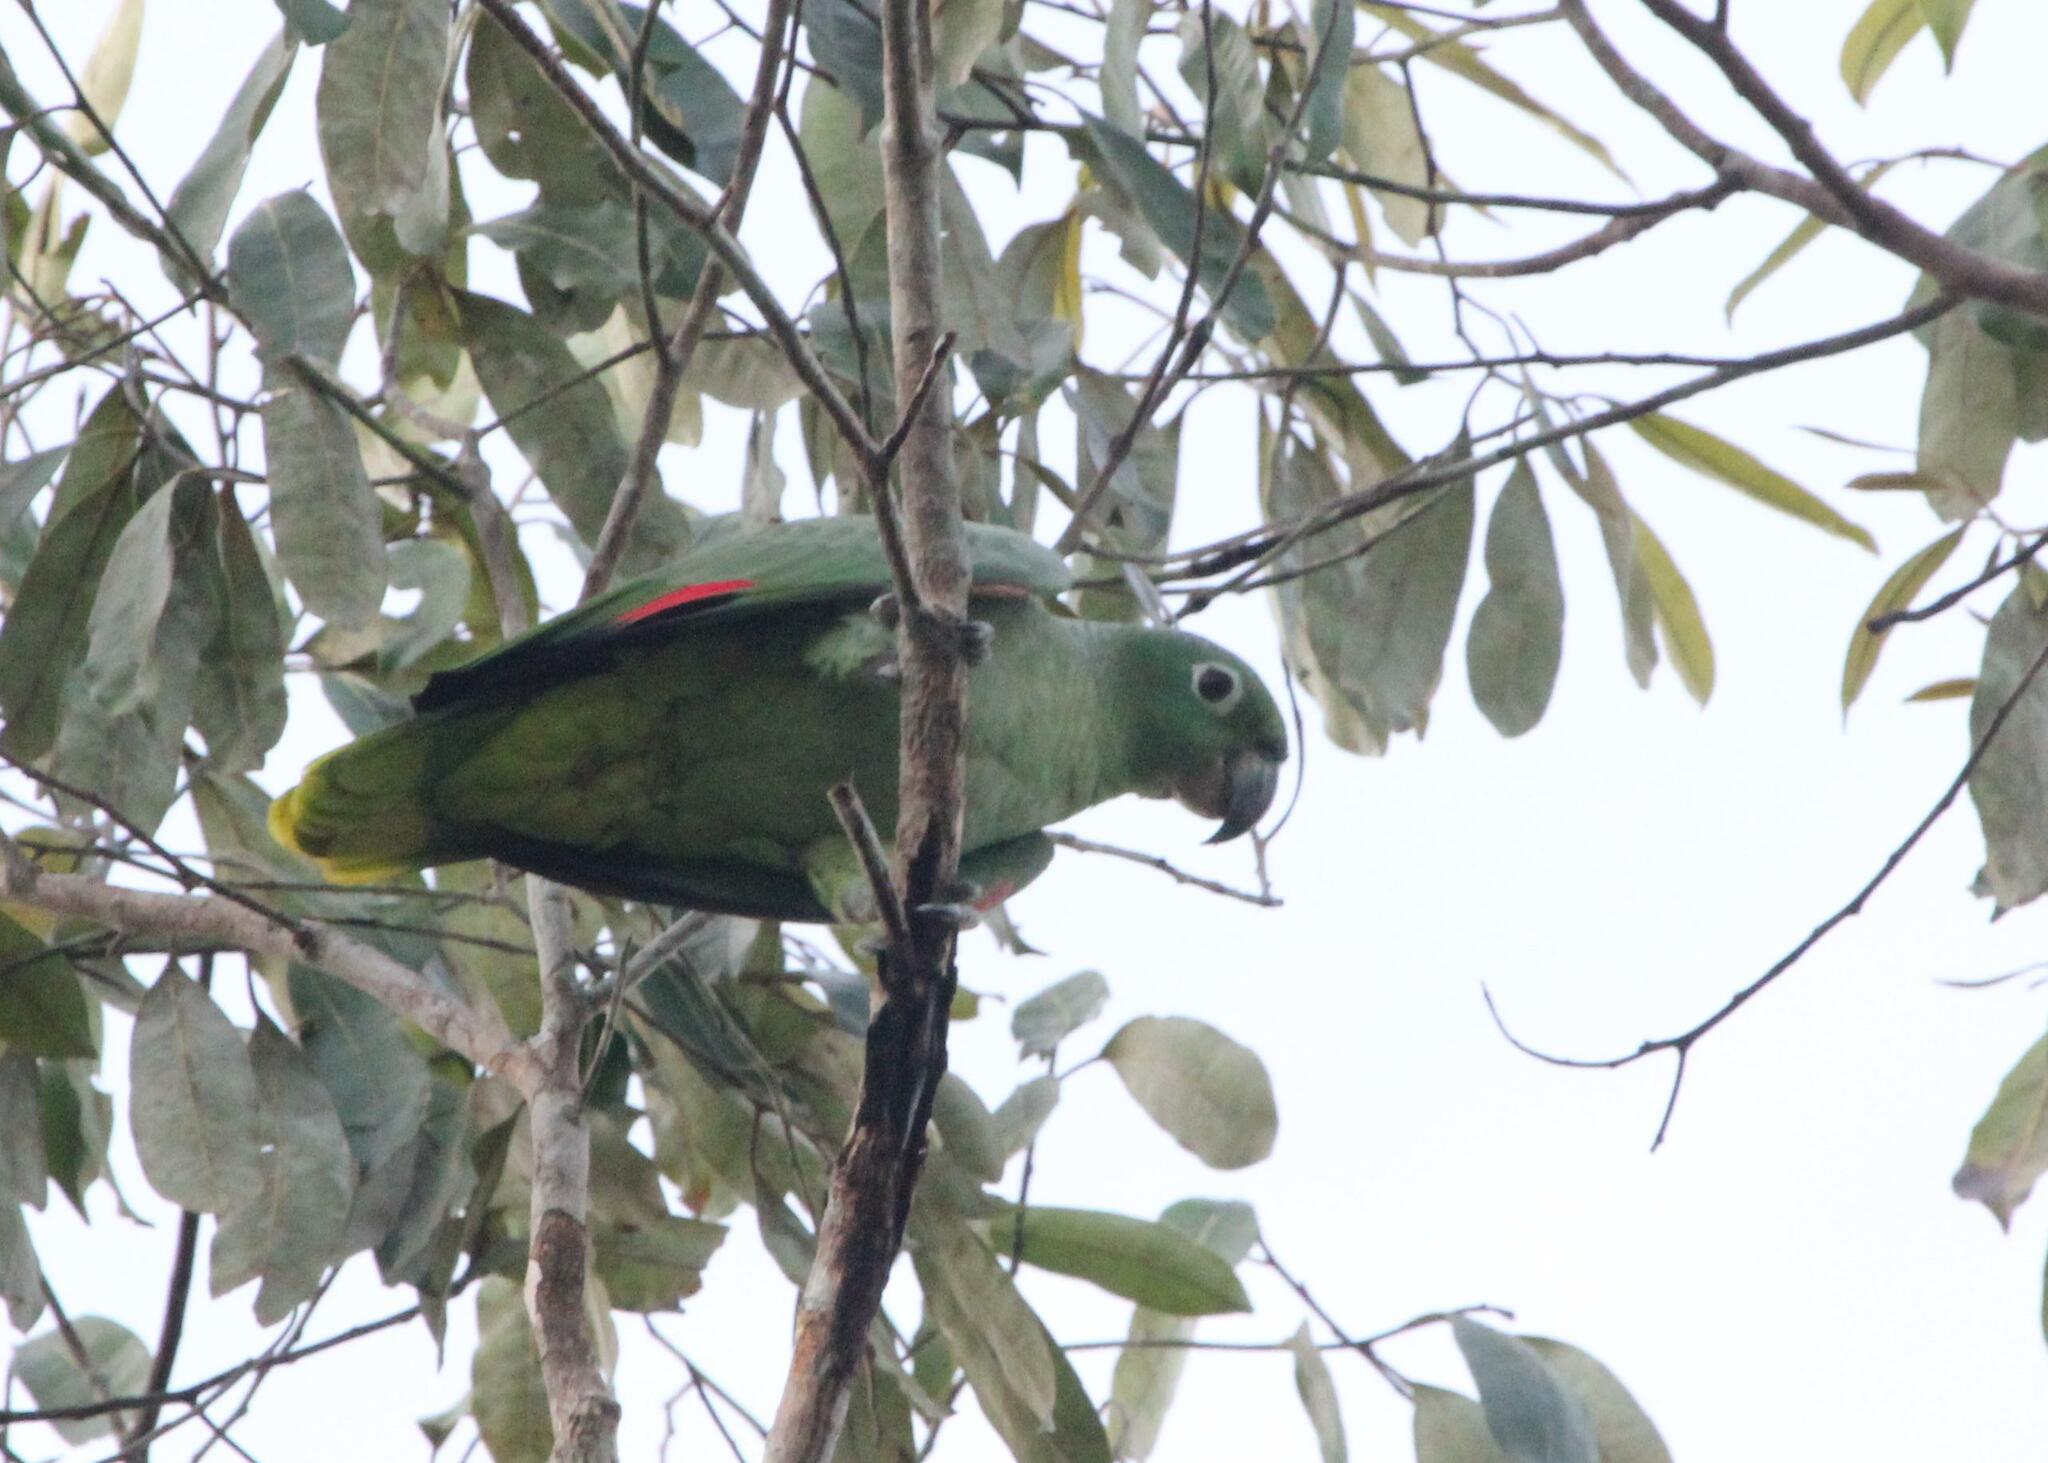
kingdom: Animalia
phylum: Chordata
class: Aves
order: Psittaciformes
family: Psittacidae
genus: Amazona
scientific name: Amazona farinosa
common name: Mealy parrot
